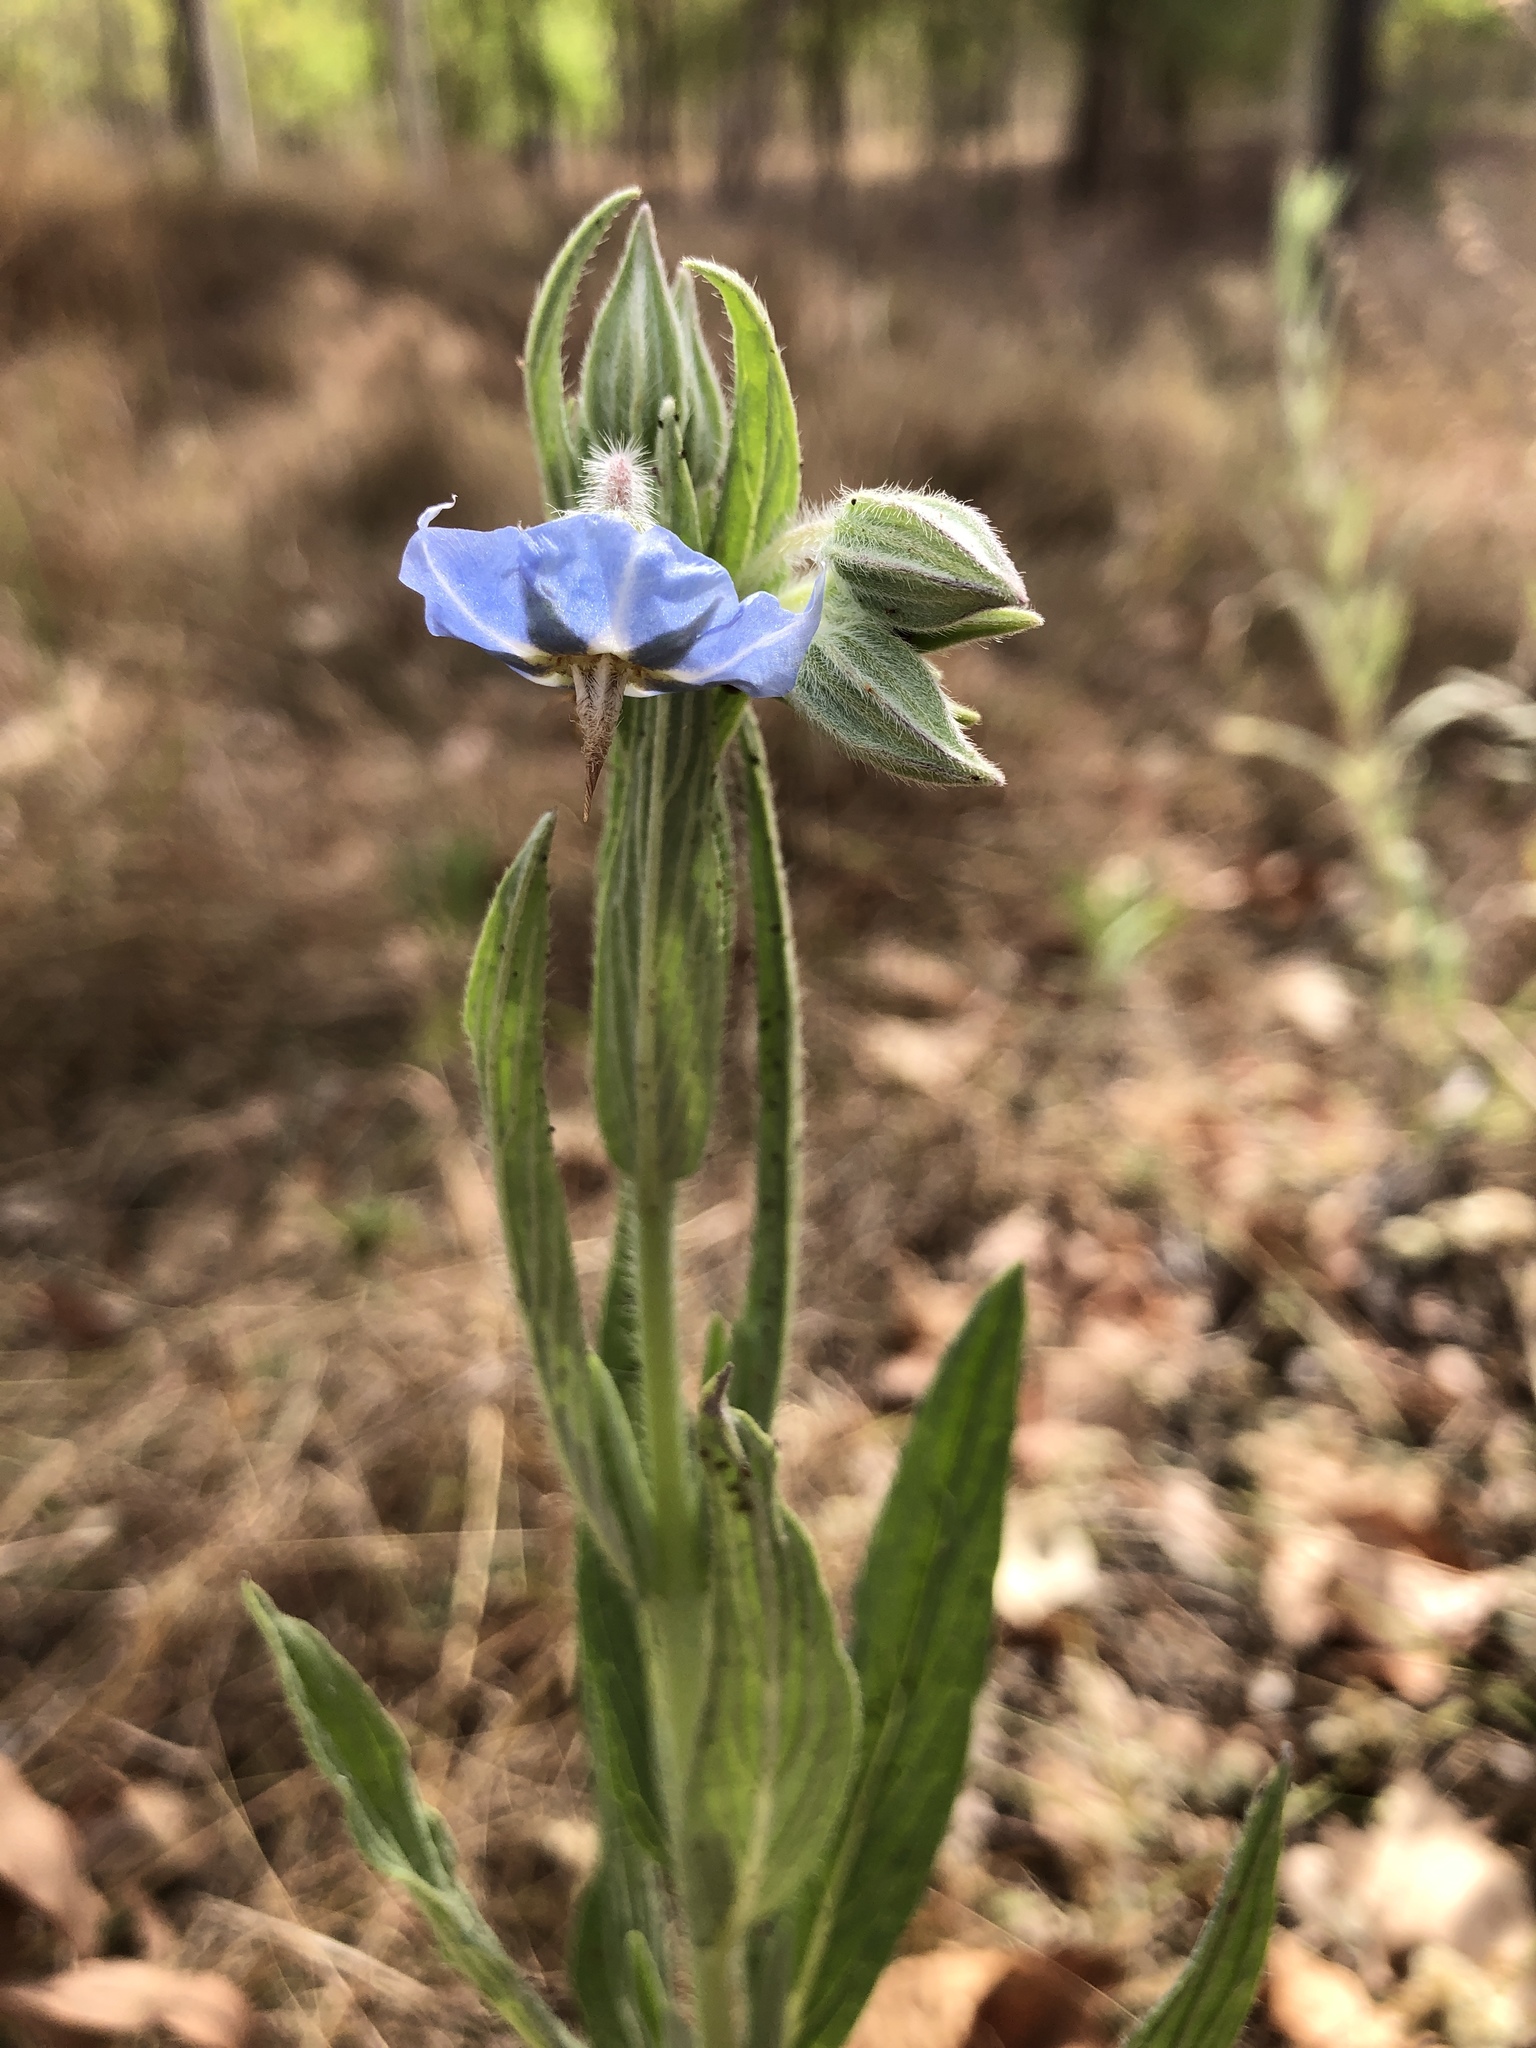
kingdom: Plantae
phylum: Tracheophyta
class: Magnoliopsida
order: Boraginales
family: Boraginaceae
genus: Trichodesma
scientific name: Trichodesma zeylanicum
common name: Camelbush
